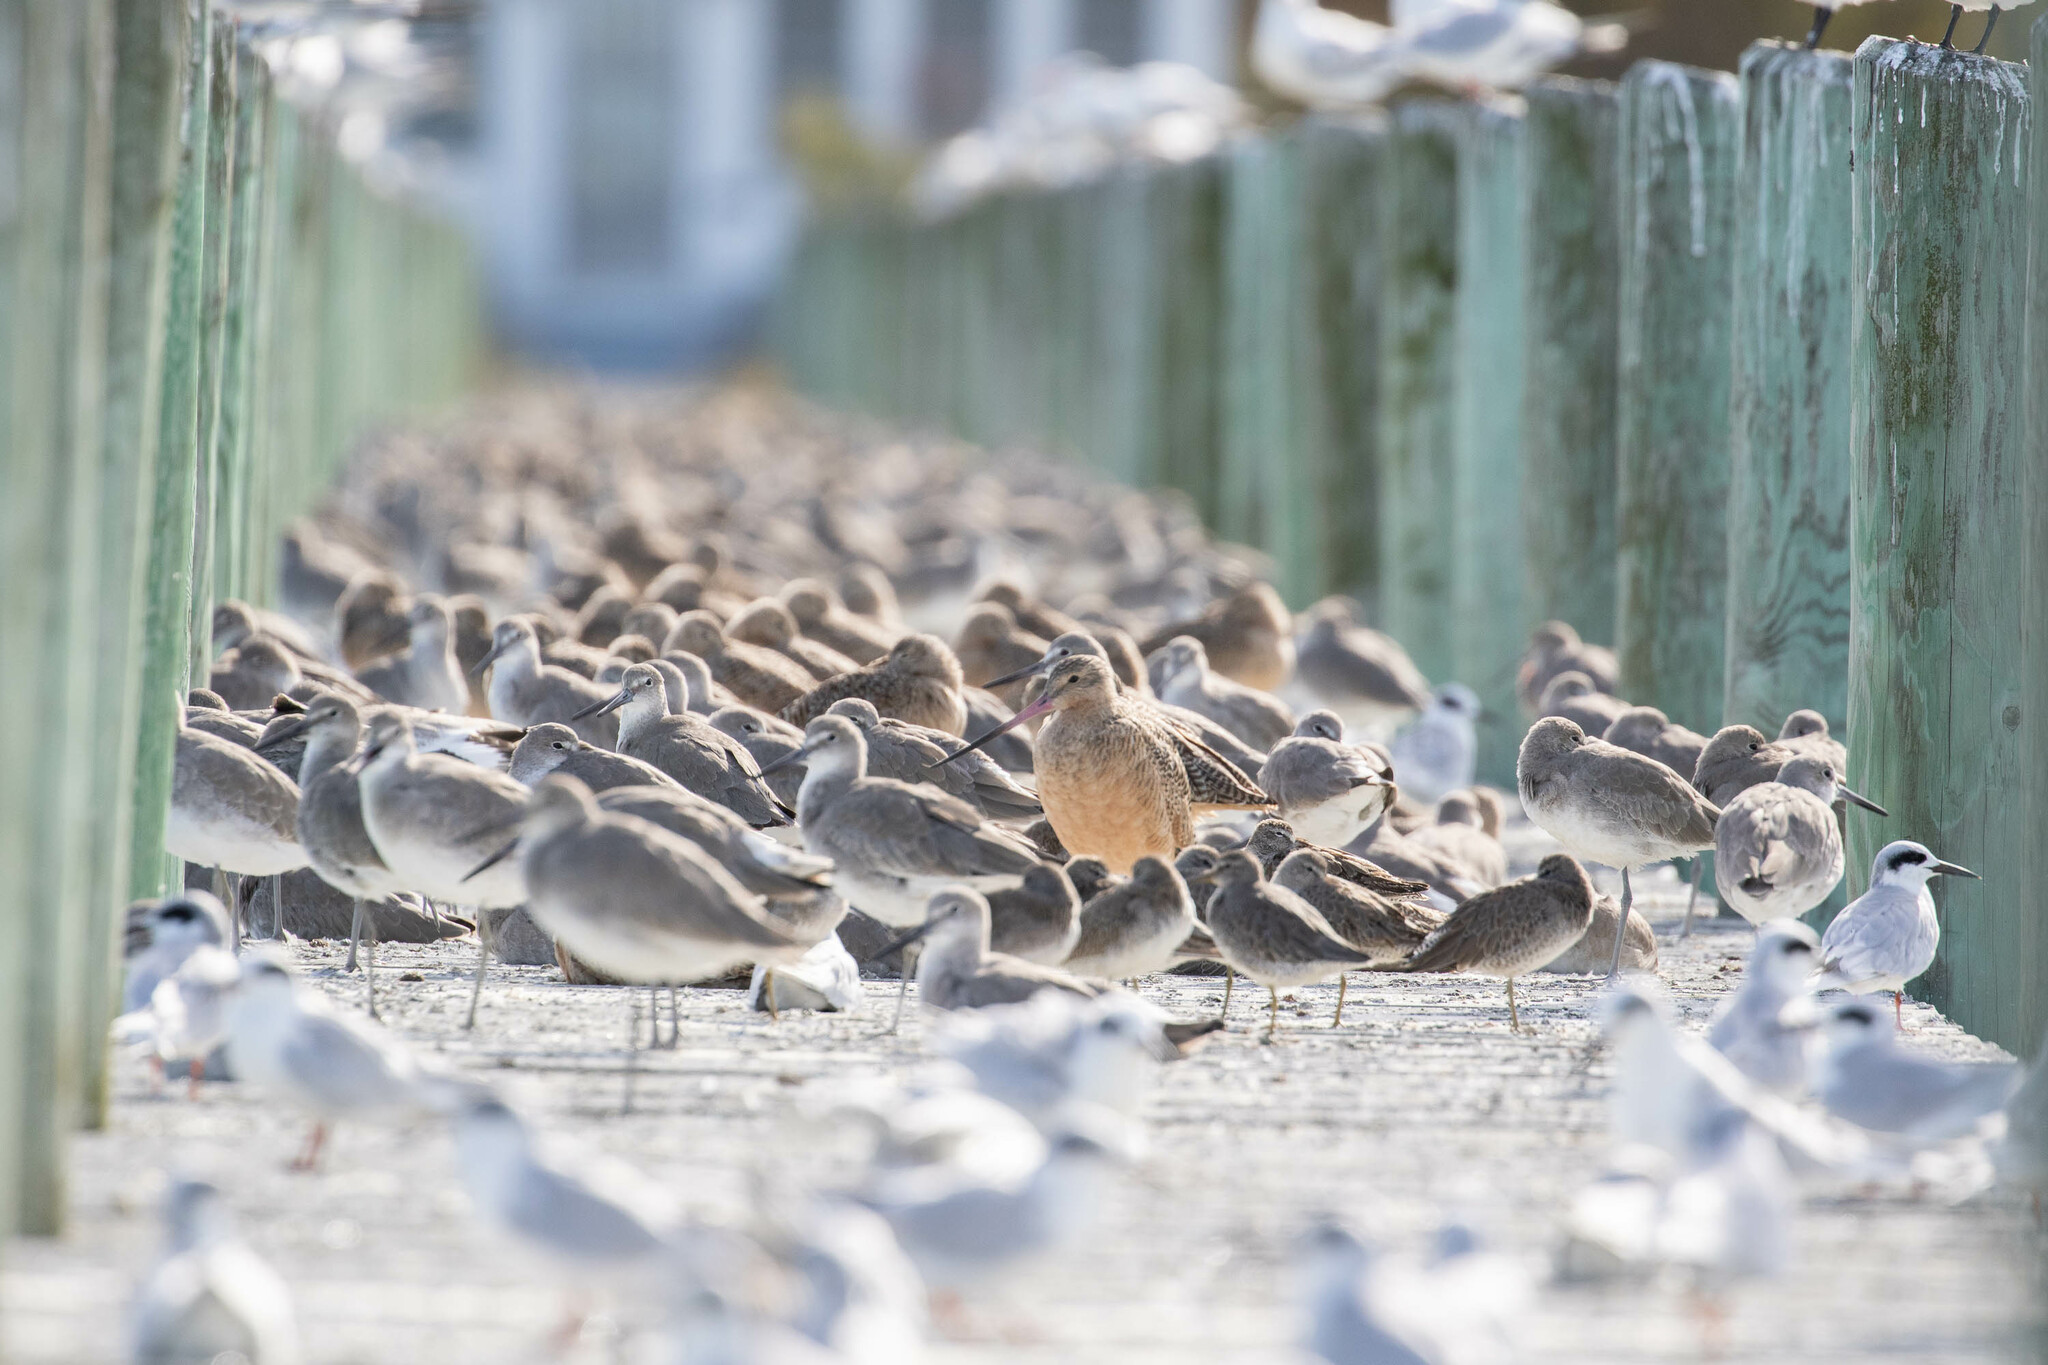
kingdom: Animalia
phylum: Chordata
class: Aves
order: Charadriiformes
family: Scolopacidae
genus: Tringa
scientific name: Tringa semipalmata
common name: Willet
